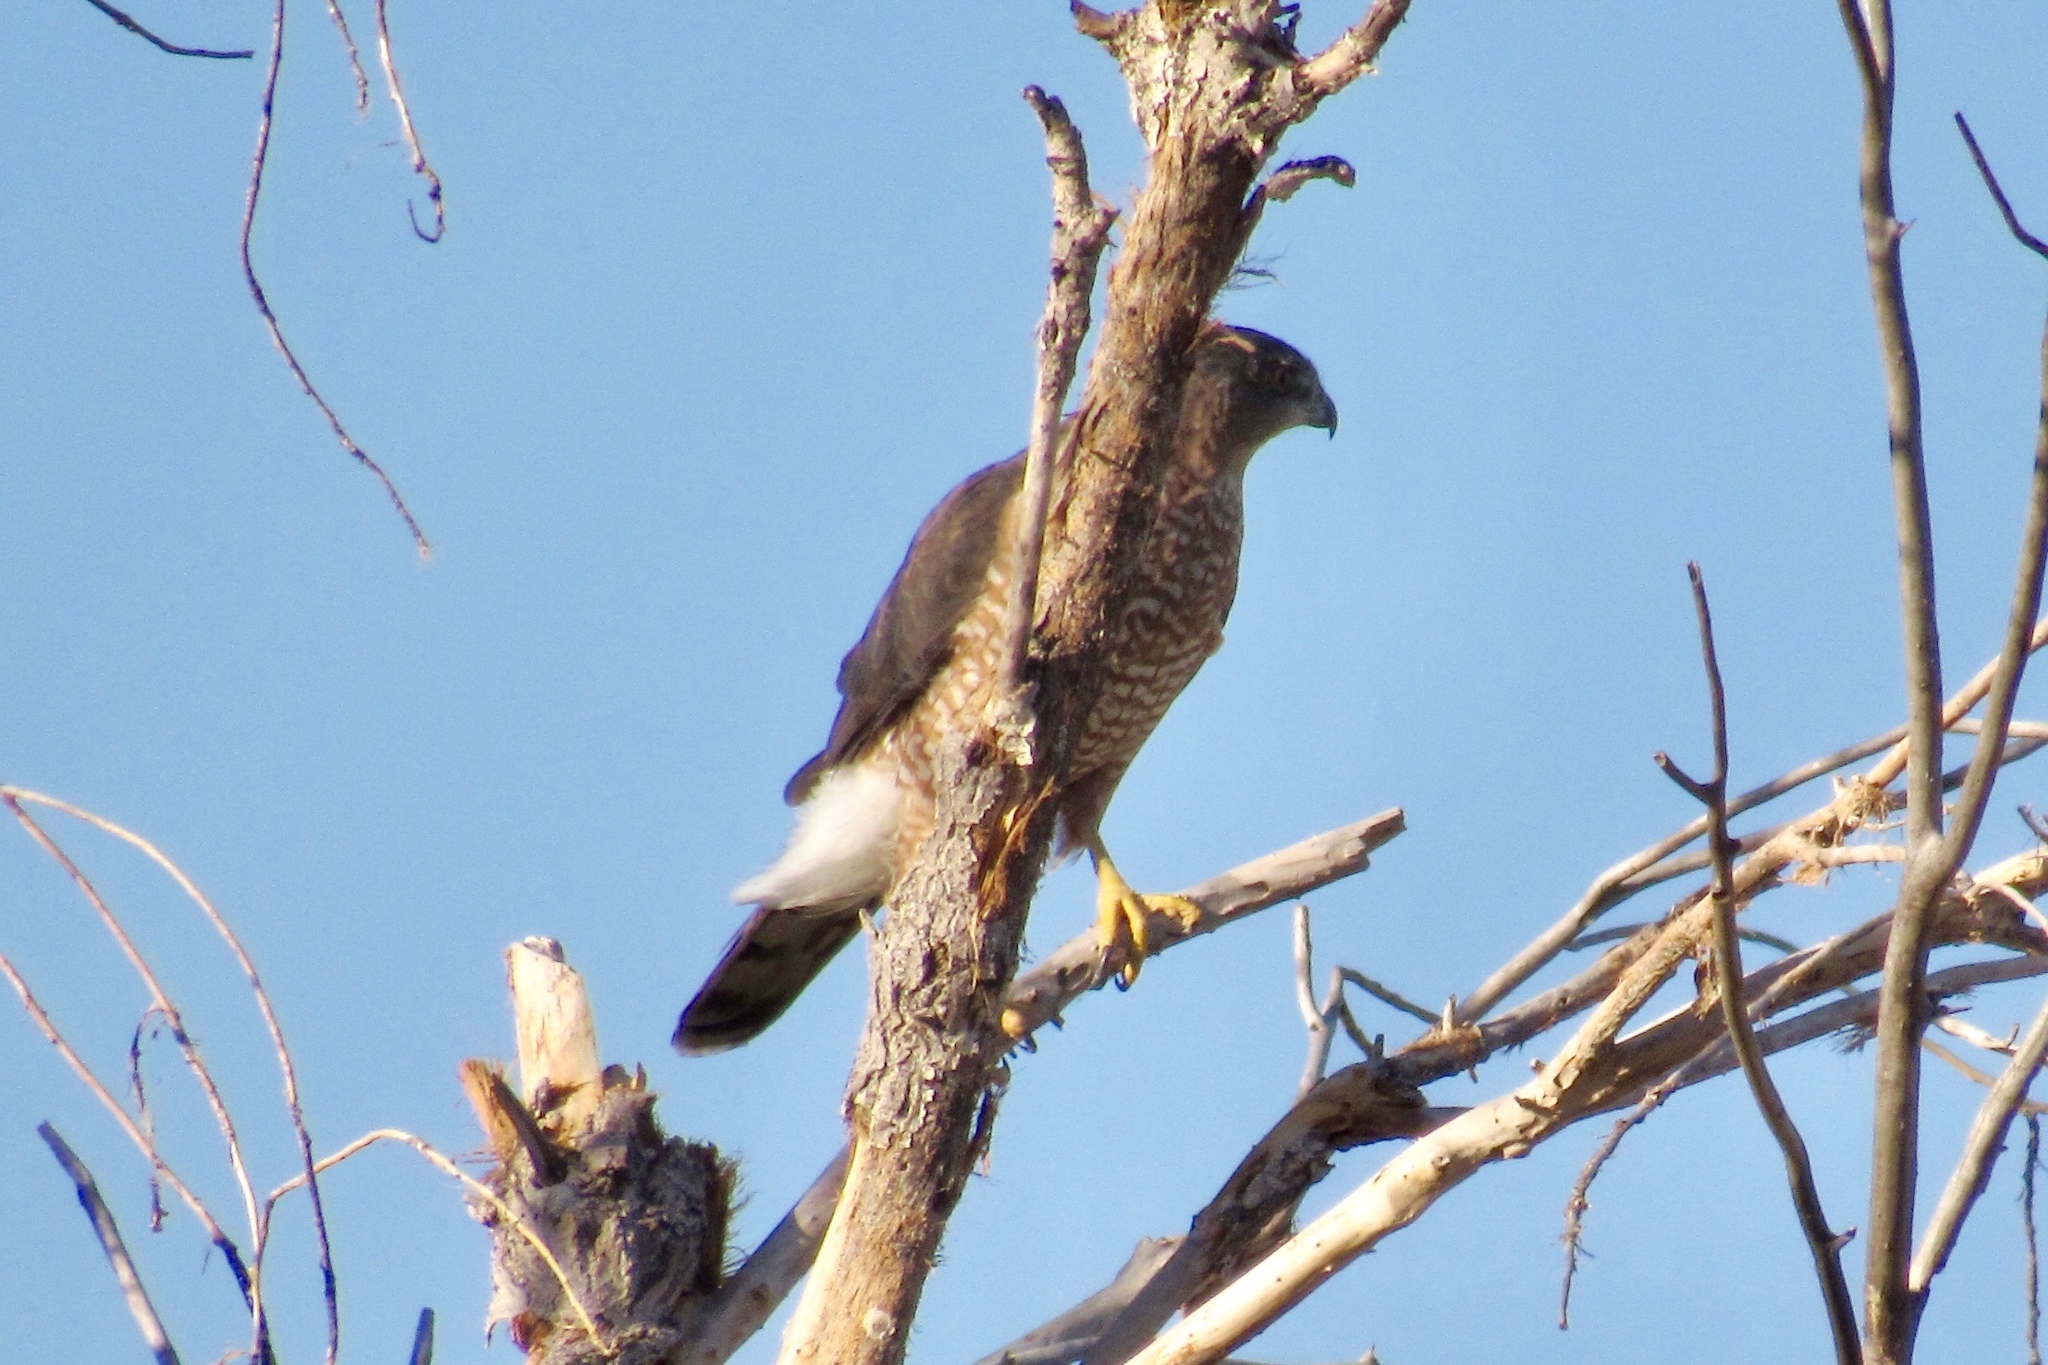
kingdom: Animalia
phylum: Chordata
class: Aves
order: Accipitriformes
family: Accipitridae
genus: Accipiter
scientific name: Accipiter cooperii
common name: Cooper's hawk
